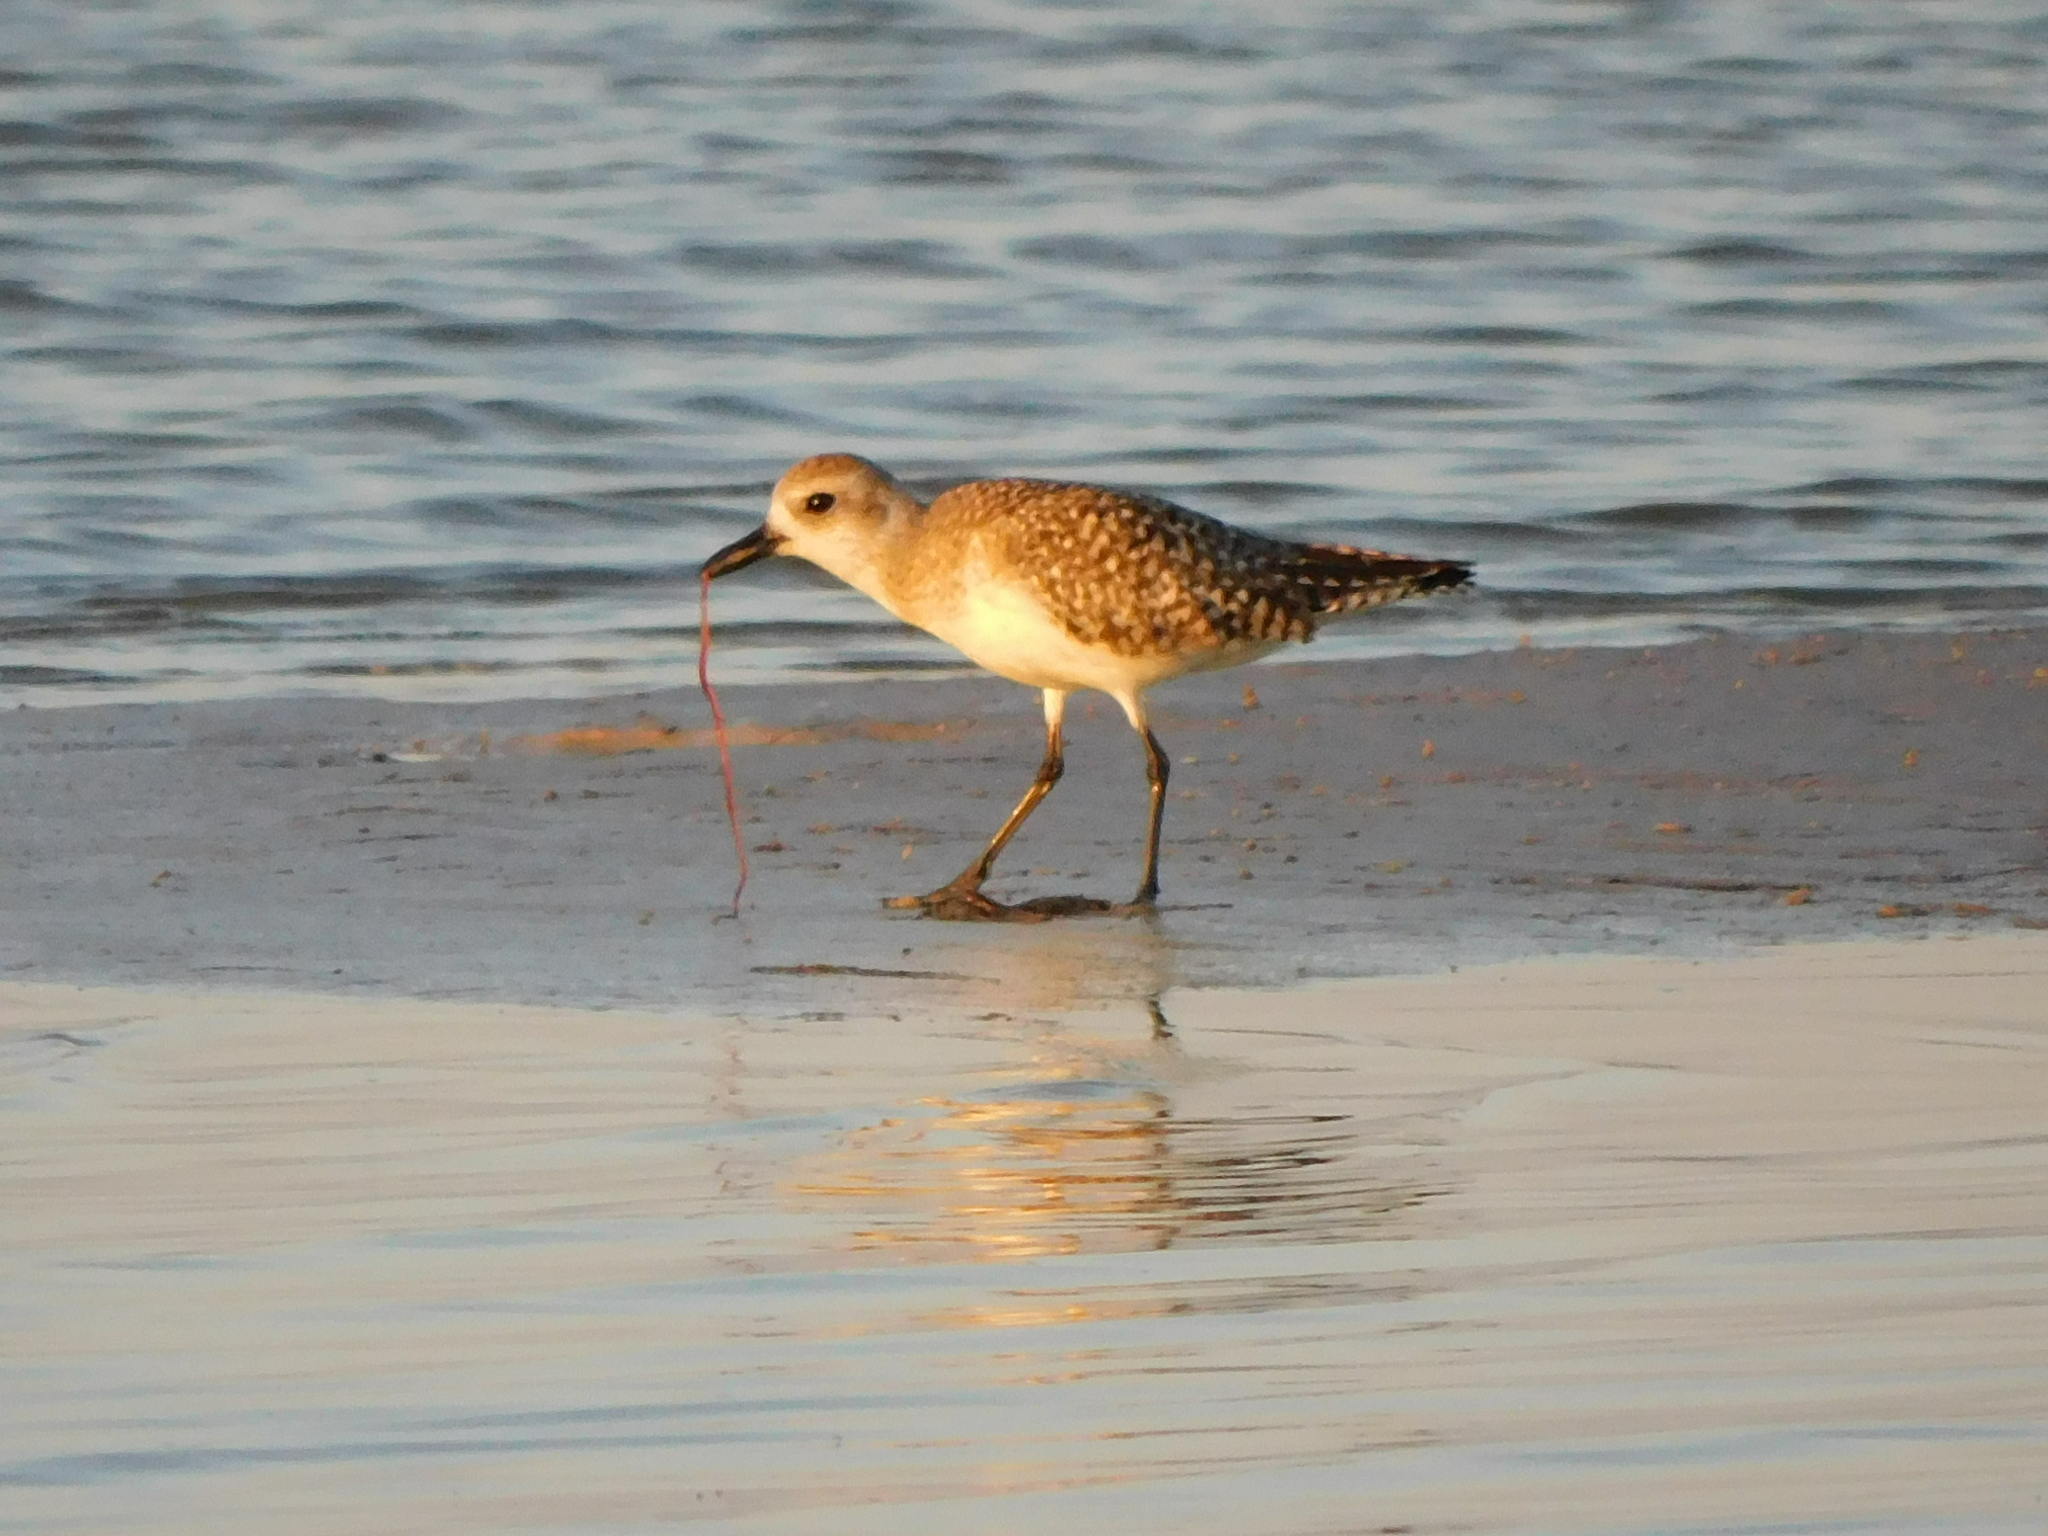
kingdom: Animalia
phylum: Chordata
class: Aves
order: Charadriiformes
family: Charadriidae
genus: Pluvialis
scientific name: Pluvialis squatarola
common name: Grey plover
